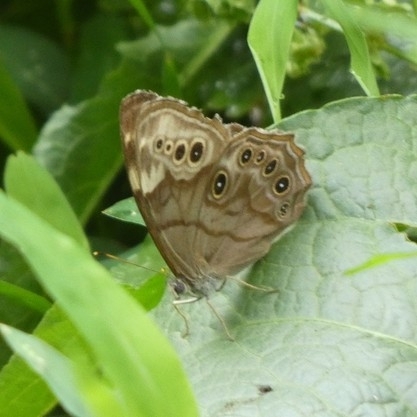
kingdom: Animalia
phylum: Arthropoda
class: Insecta
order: Lepidoptera
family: Nymphalidae
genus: Lethe
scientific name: Lethe anthedon
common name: Northern pearly-eye
